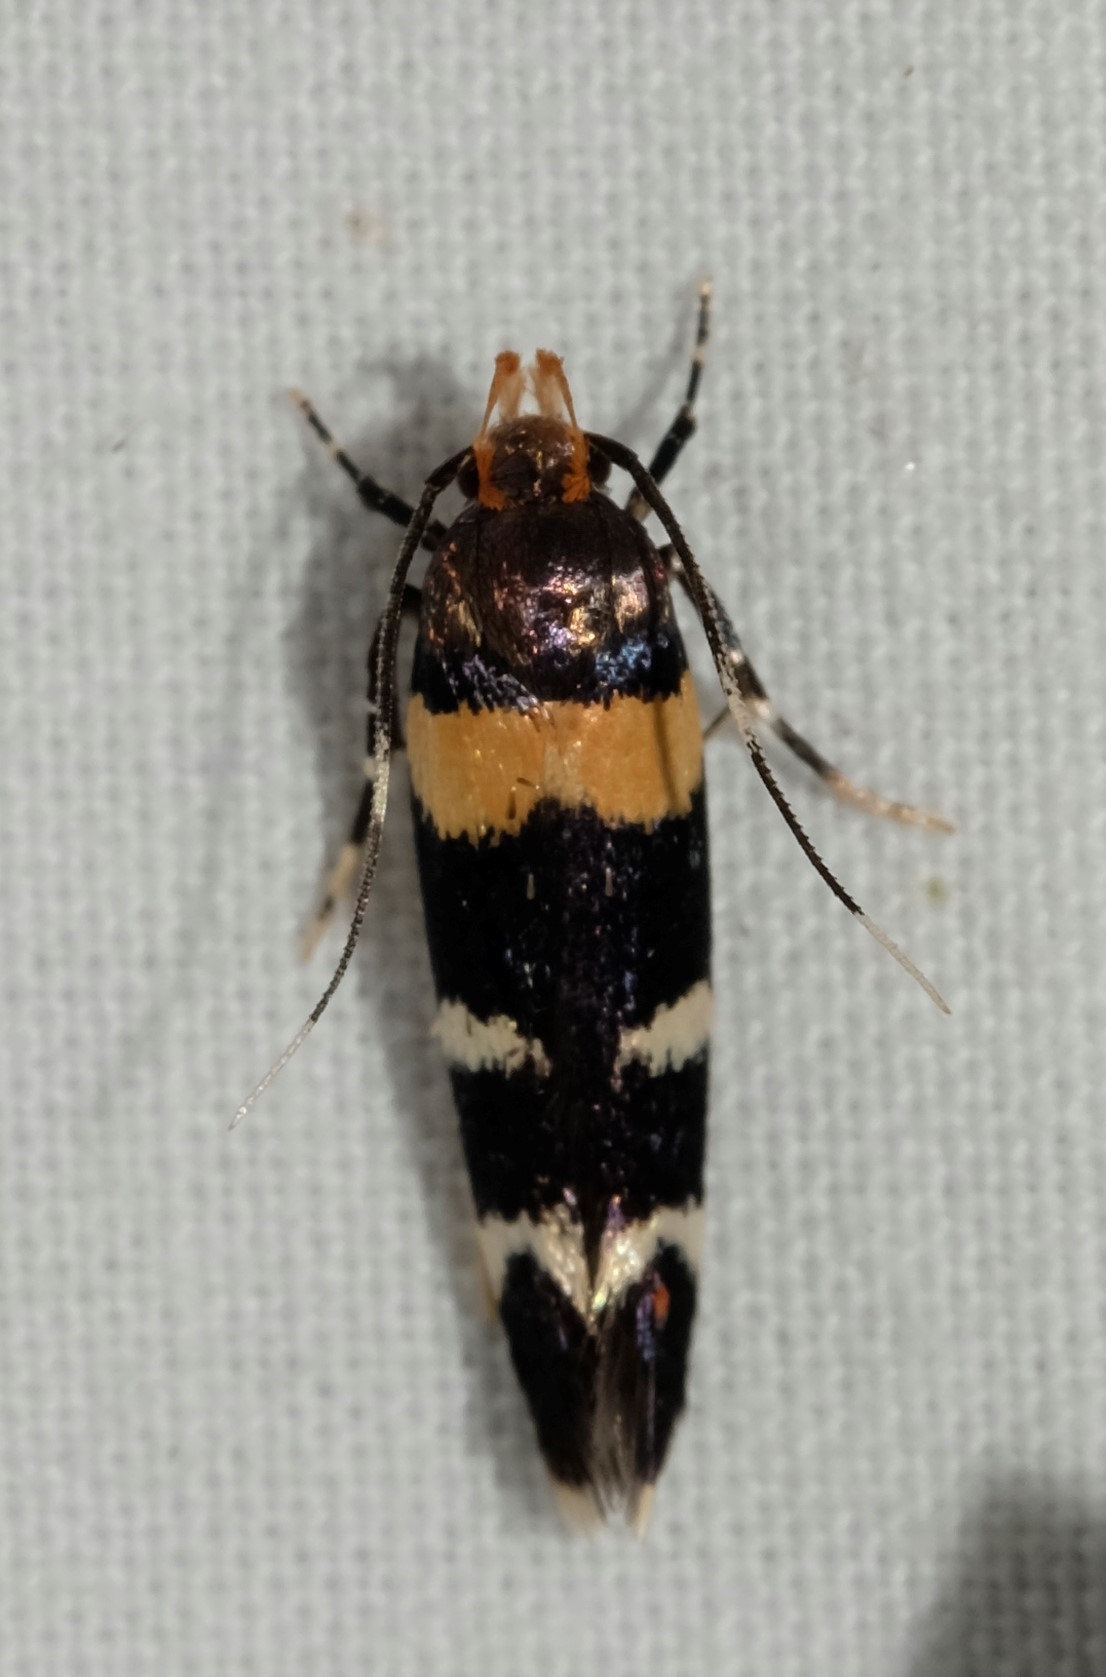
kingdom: Animalia
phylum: Arthropoda
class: Insecta
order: Lepidoptera
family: Cosmopterigidae
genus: Limnaecia
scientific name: Limnaecia cirrhozona
